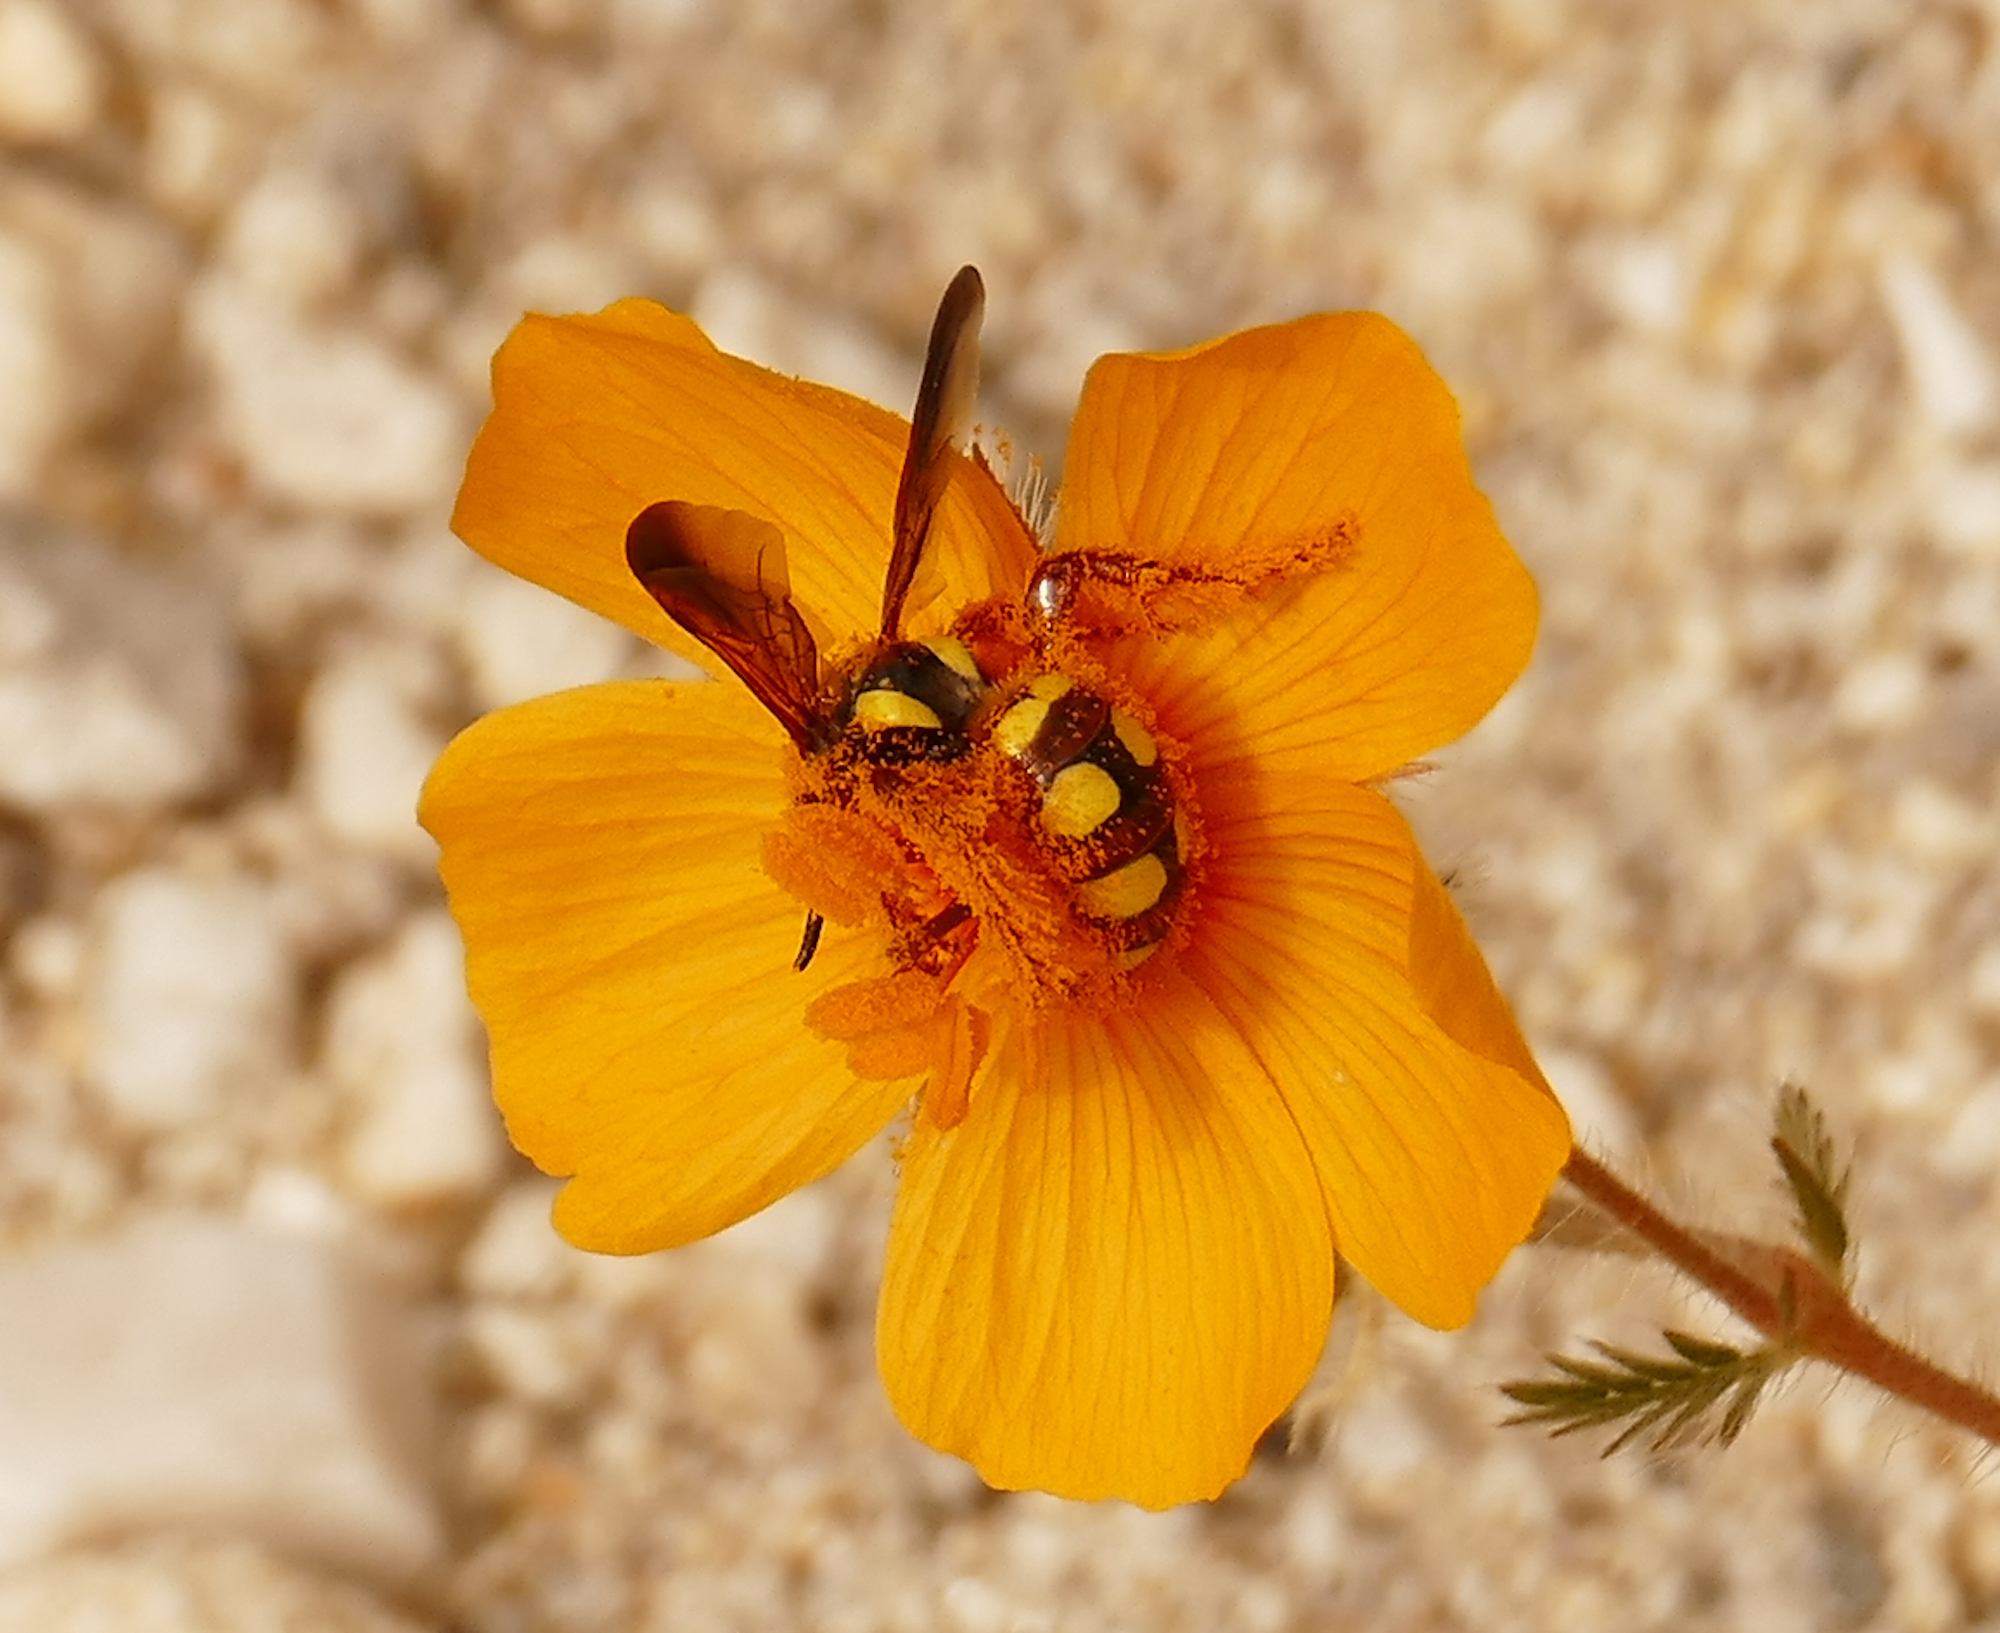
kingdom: Animalia
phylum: Arthropoda
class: Insecta
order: Hymenoptera
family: Scoliidae
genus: Colpa
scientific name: Colpa octomaculata
